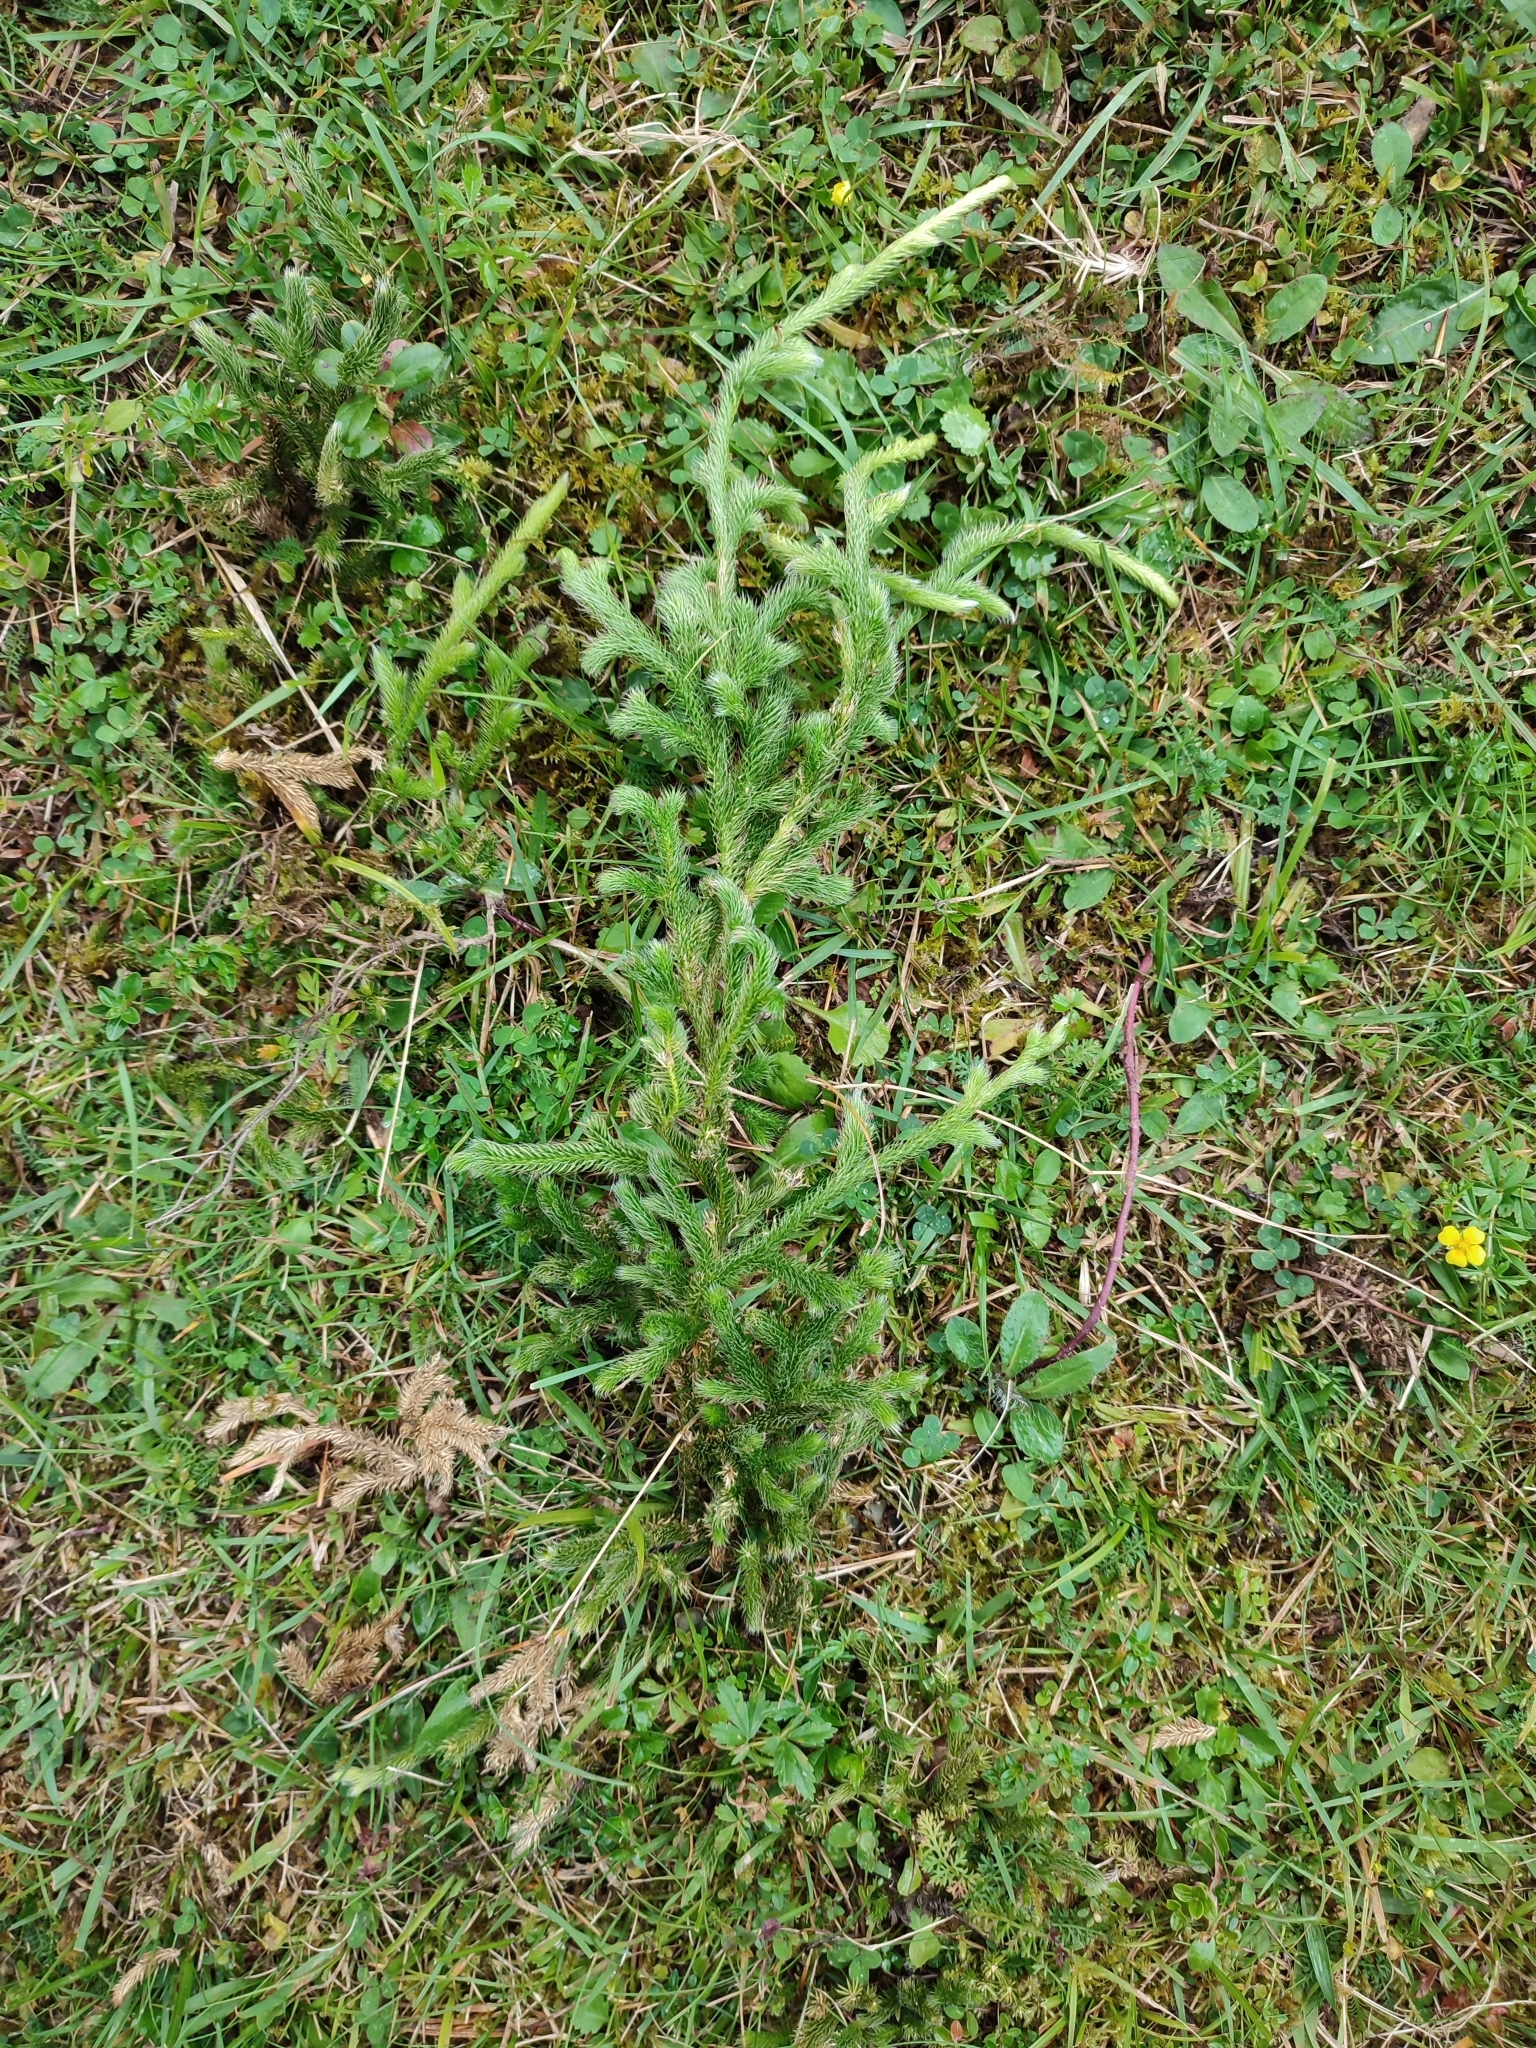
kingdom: Plantae
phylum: Tracheophyta
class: Lycopodiopsida
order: Lycopodiales
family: Lycopodiaceae
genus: Lycopodium
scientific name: Lycopodium clavatum
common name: Stag's-horn clubmoss
